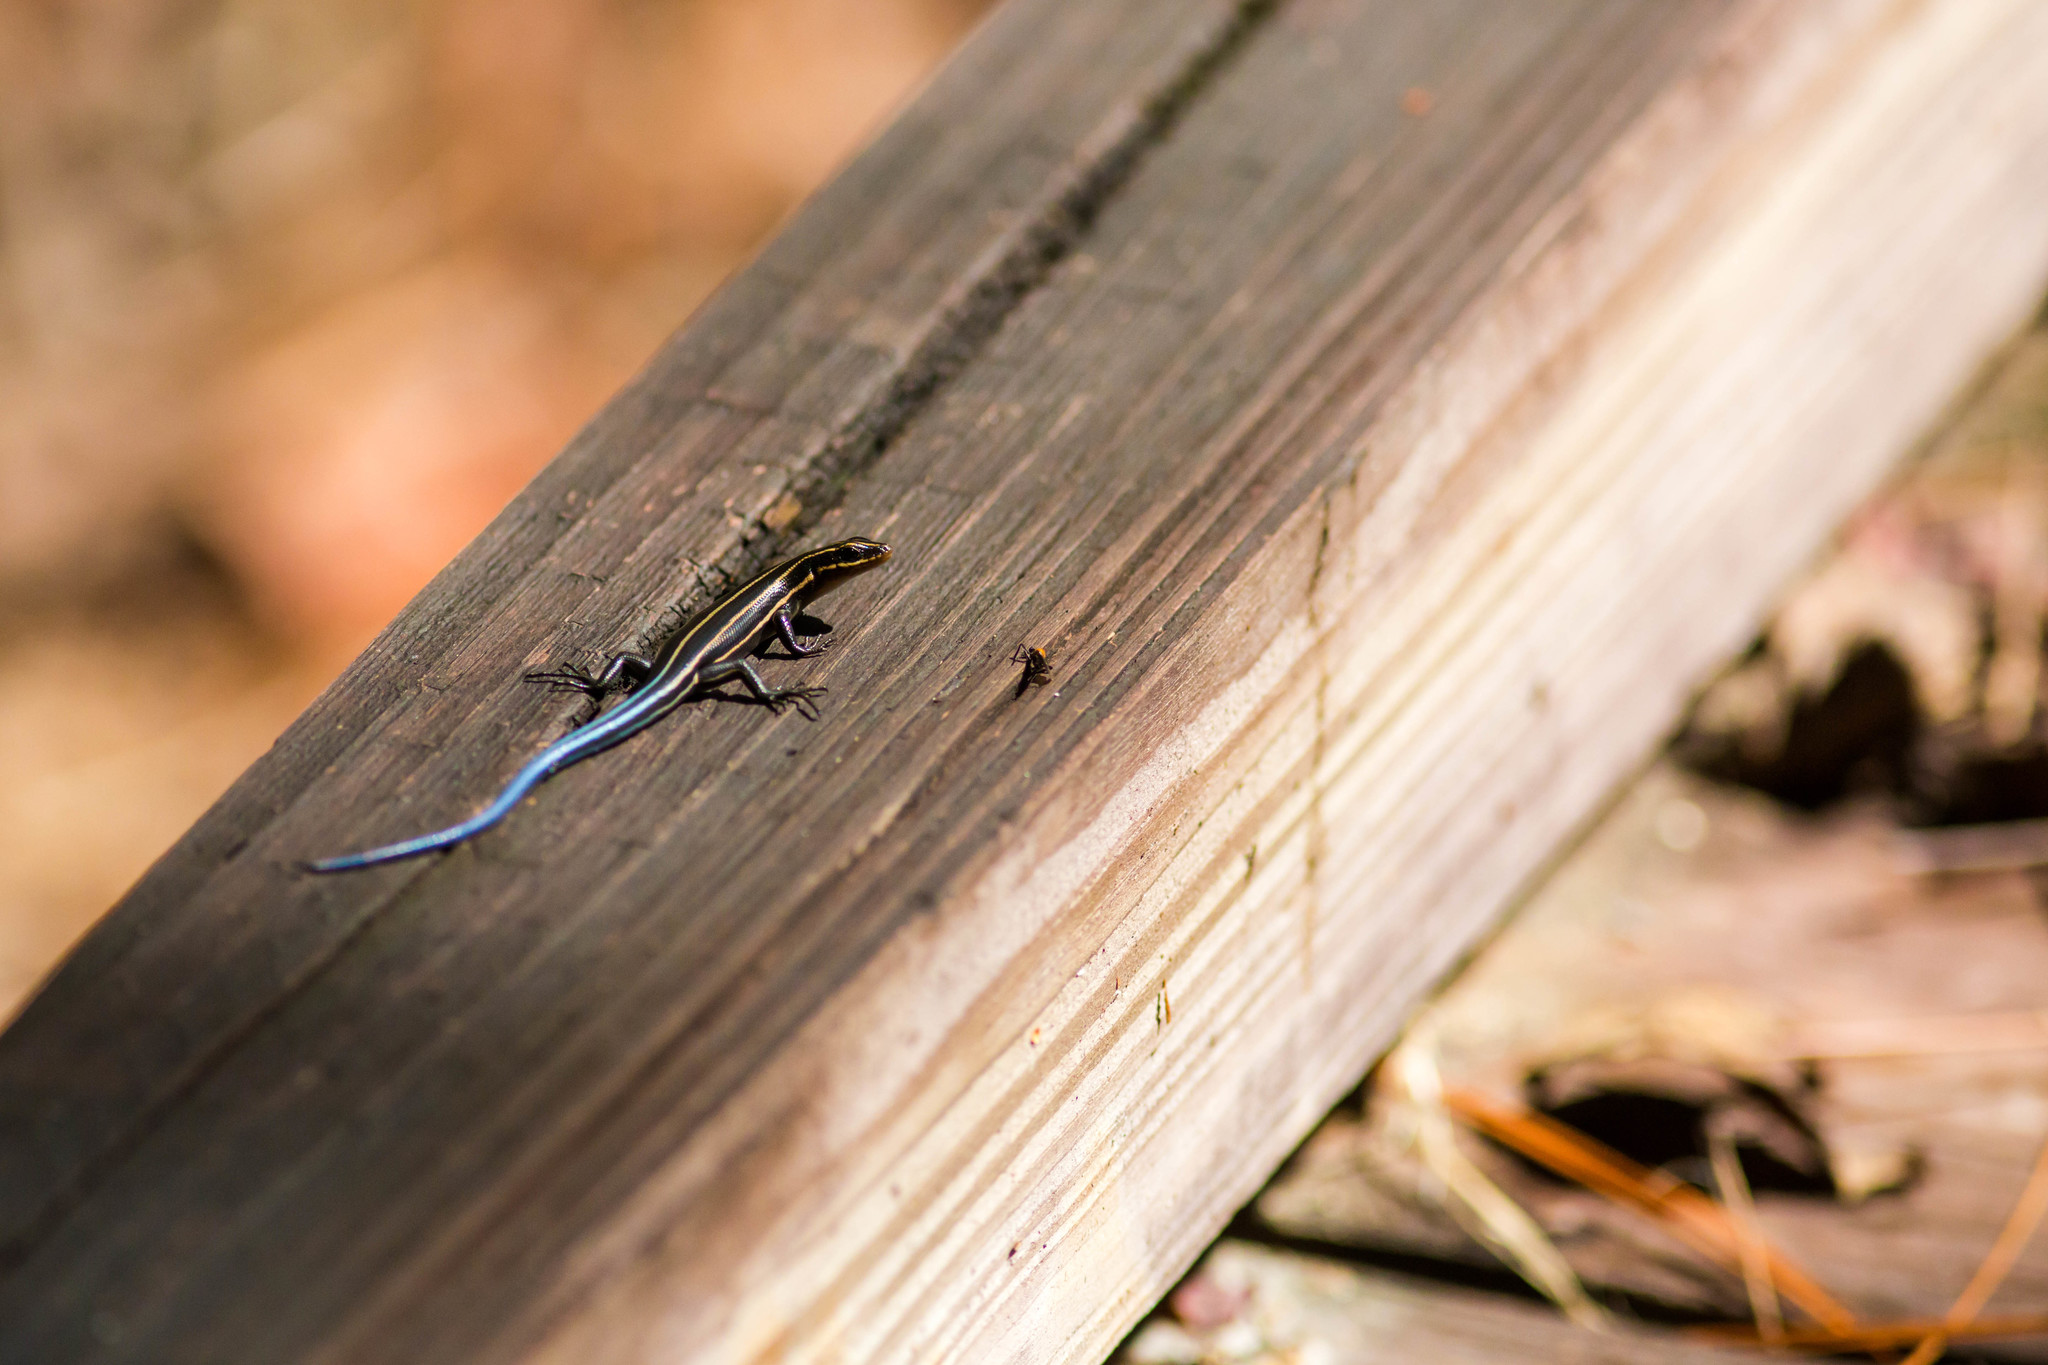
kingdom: Animalia
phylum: Chordata
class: Squamata
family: Scincidae
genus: Plestiodon
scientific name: Plestiodon
